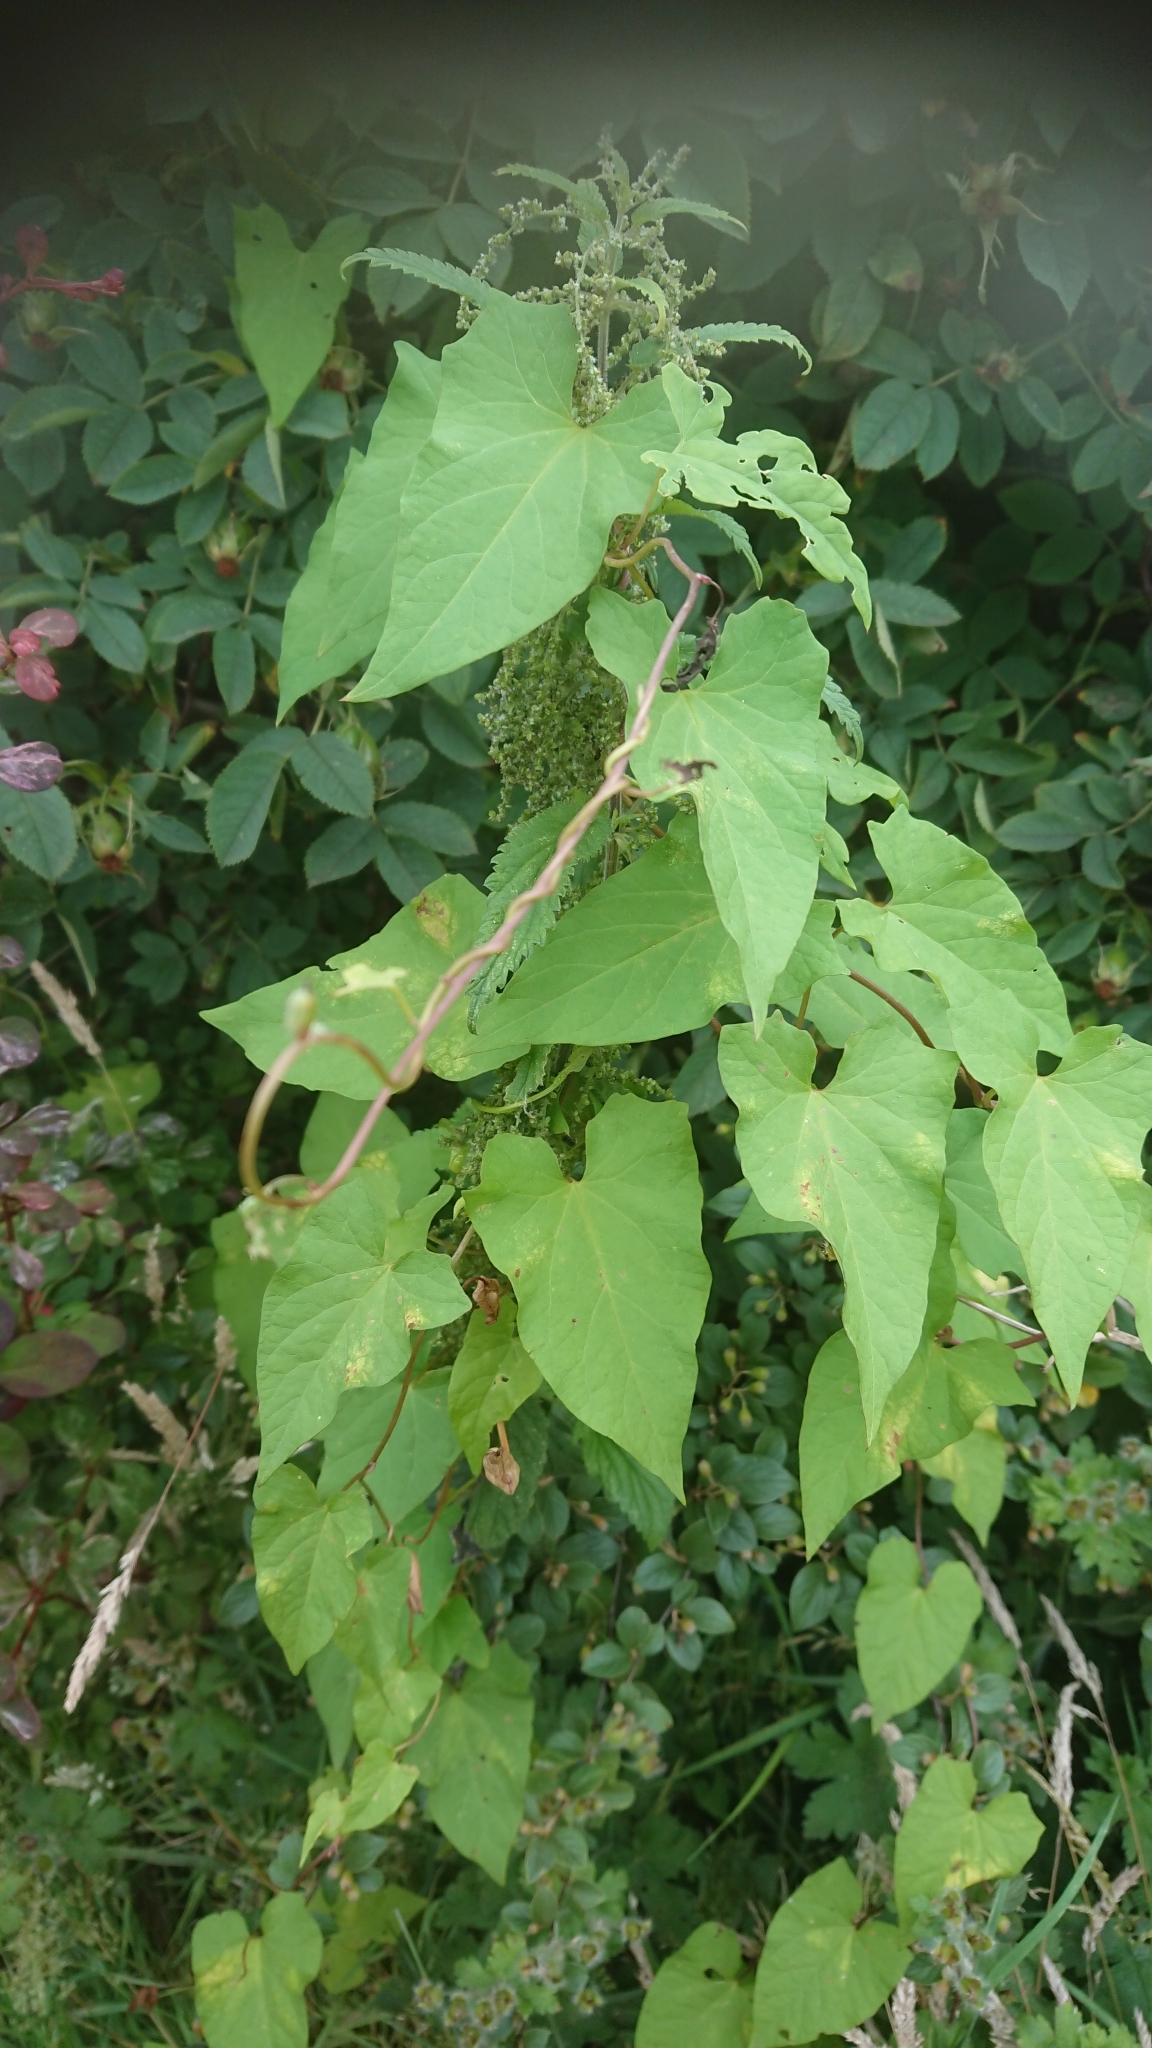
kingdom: Plantae
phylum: Tracheophyta
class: Magnoliopsida
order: Solanales
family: Convolvulaceae
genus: Calystegia
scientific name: Calystegia
